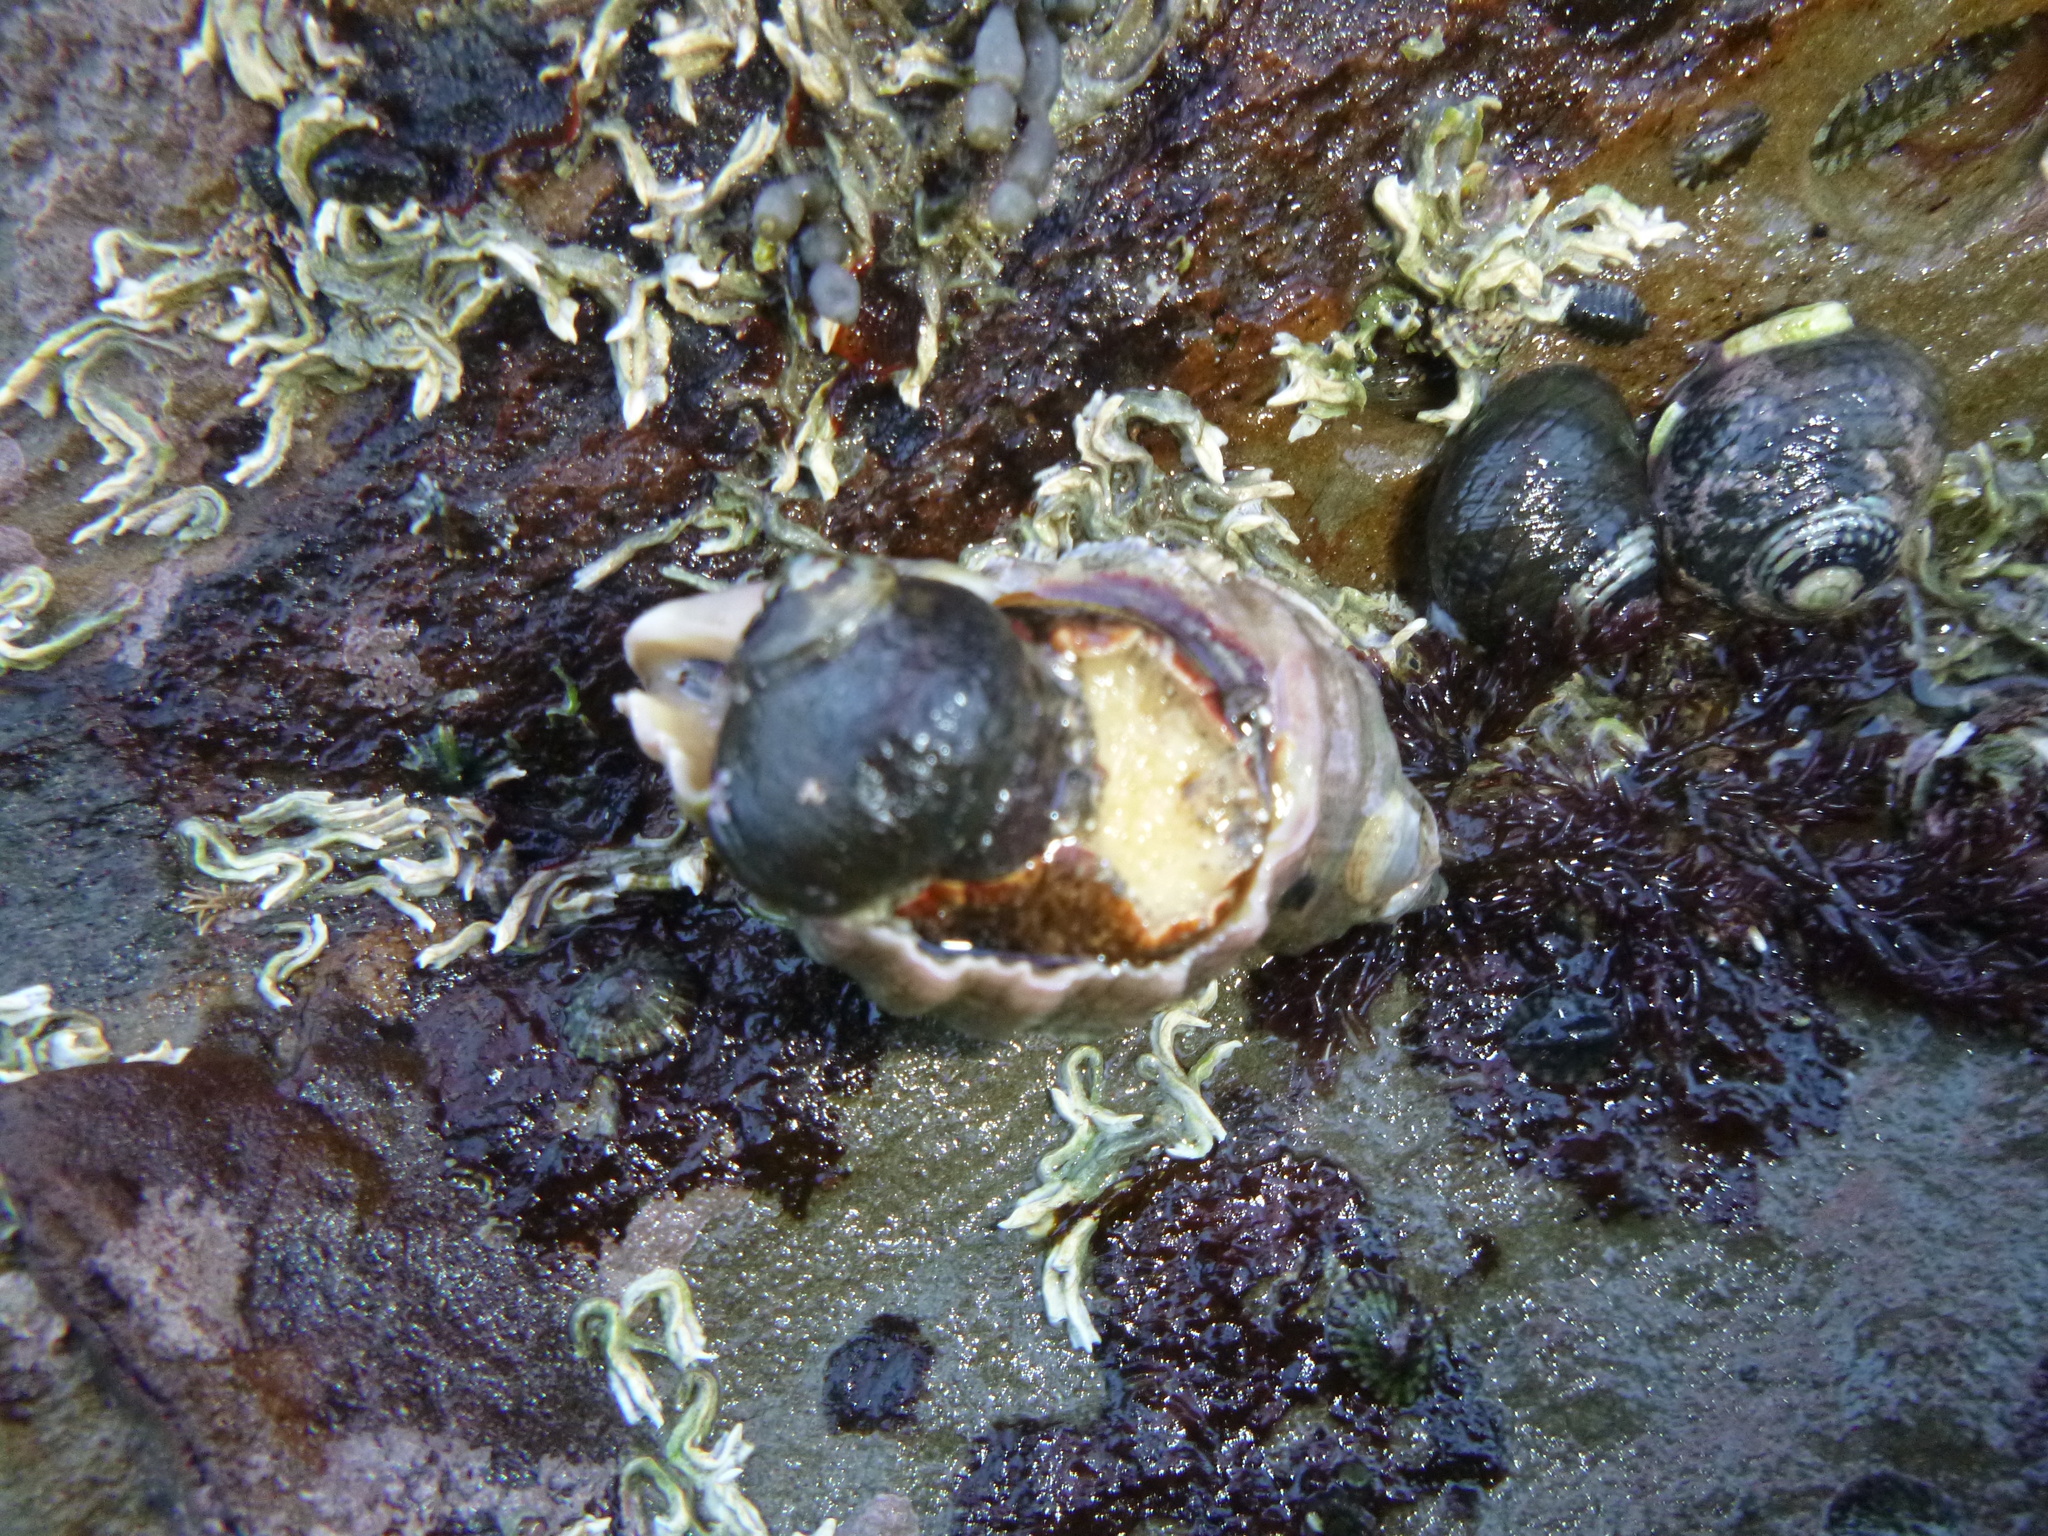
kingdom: Animalia
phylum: Mollusca
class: Gastropoda
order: Trochida
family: Trochidae
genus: Diloma
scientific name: Diloma aethiops
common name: Scorched monodont
